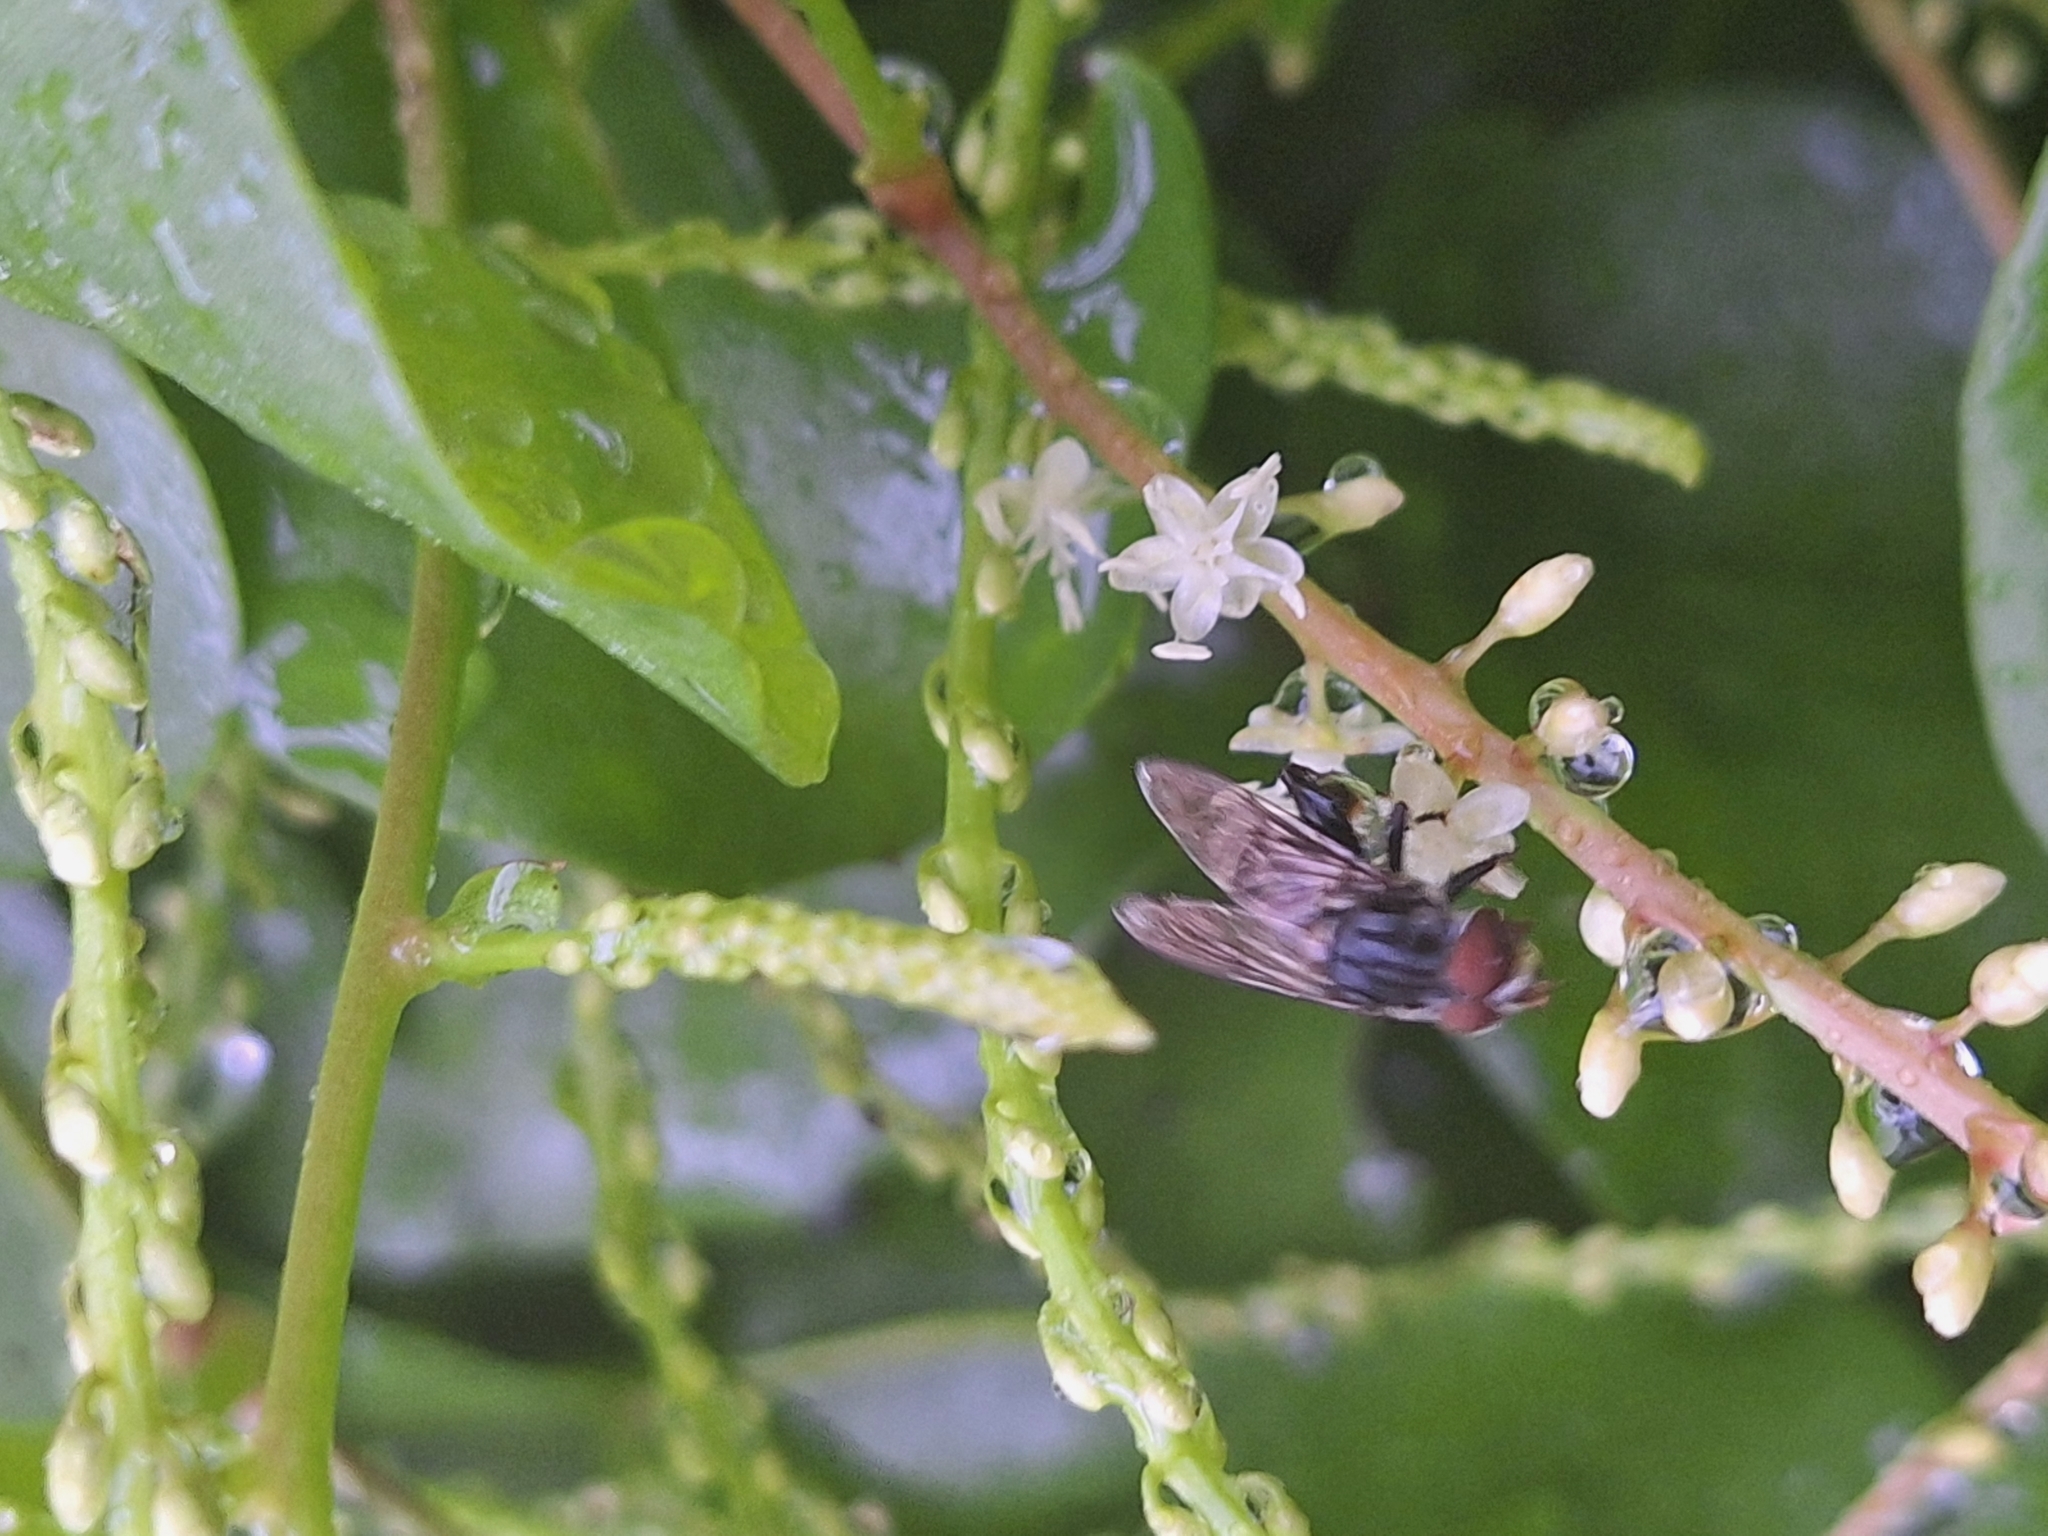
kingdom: Animalia
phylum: Arthropoda
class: Insecta
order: Diptera
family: Syrphidae
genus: Palpada
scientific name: Palpada furcata
